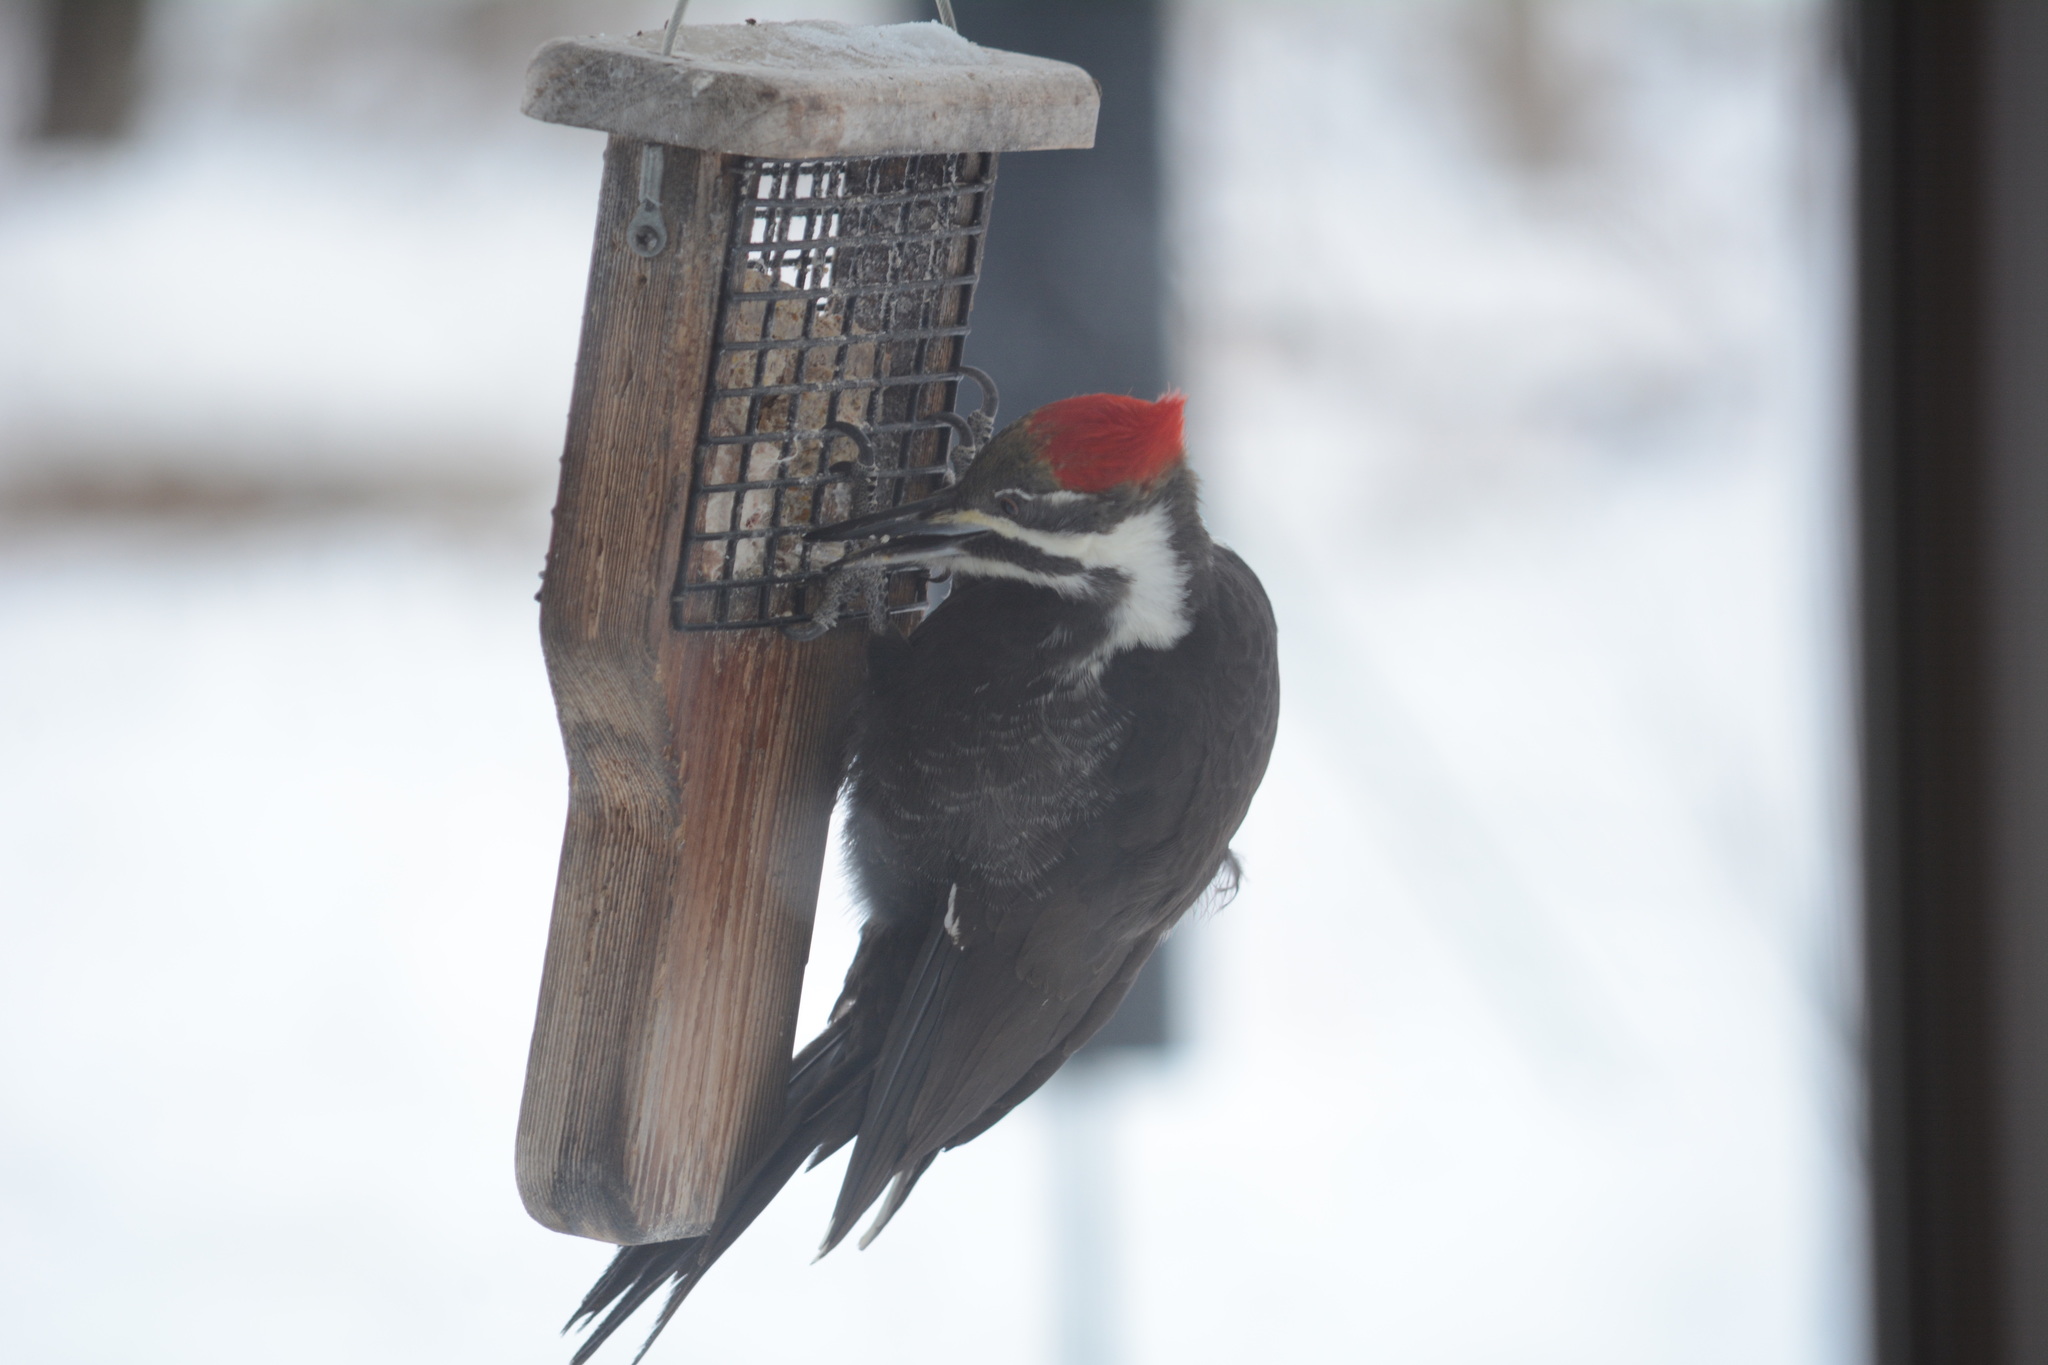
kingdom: Animalia
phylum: Chordata
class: Aves
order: Piciformes
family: Picidae
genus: Dryocopus
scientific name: Dryocopus pileatus
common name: Pileated woodpecker
